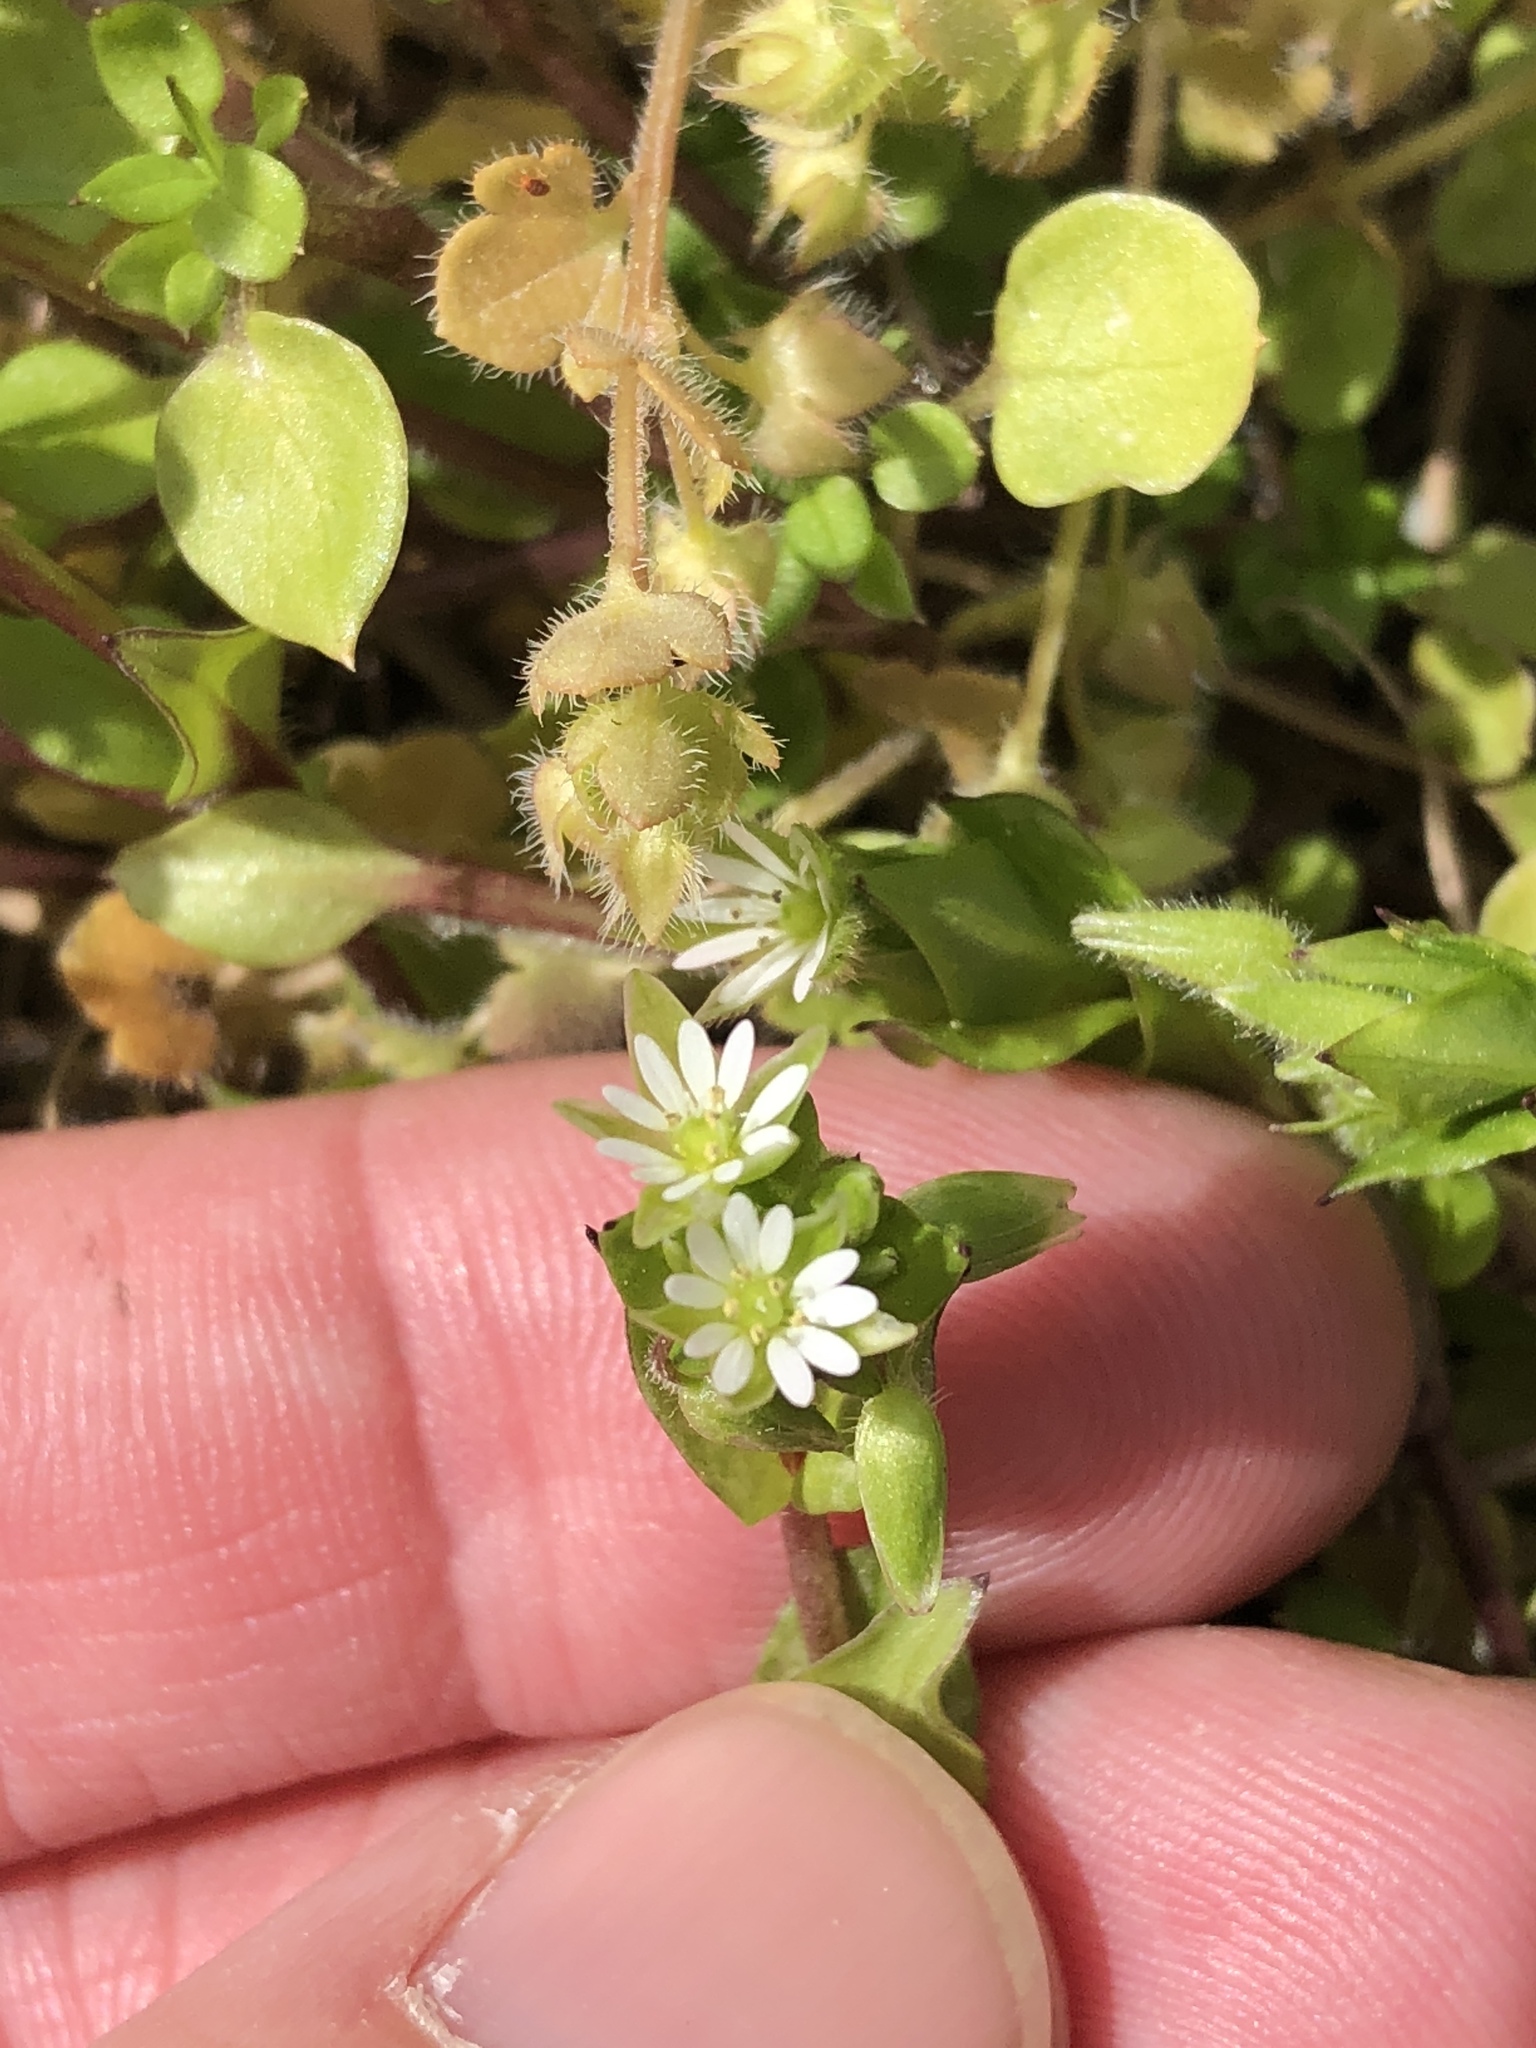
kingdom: Plantae
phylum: Tracheophyta
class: Magnoliopsida
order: Caryophyllales
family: Caryophyllaceae
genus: Stellaria
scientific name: Stellaria media
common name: Common chickweed
